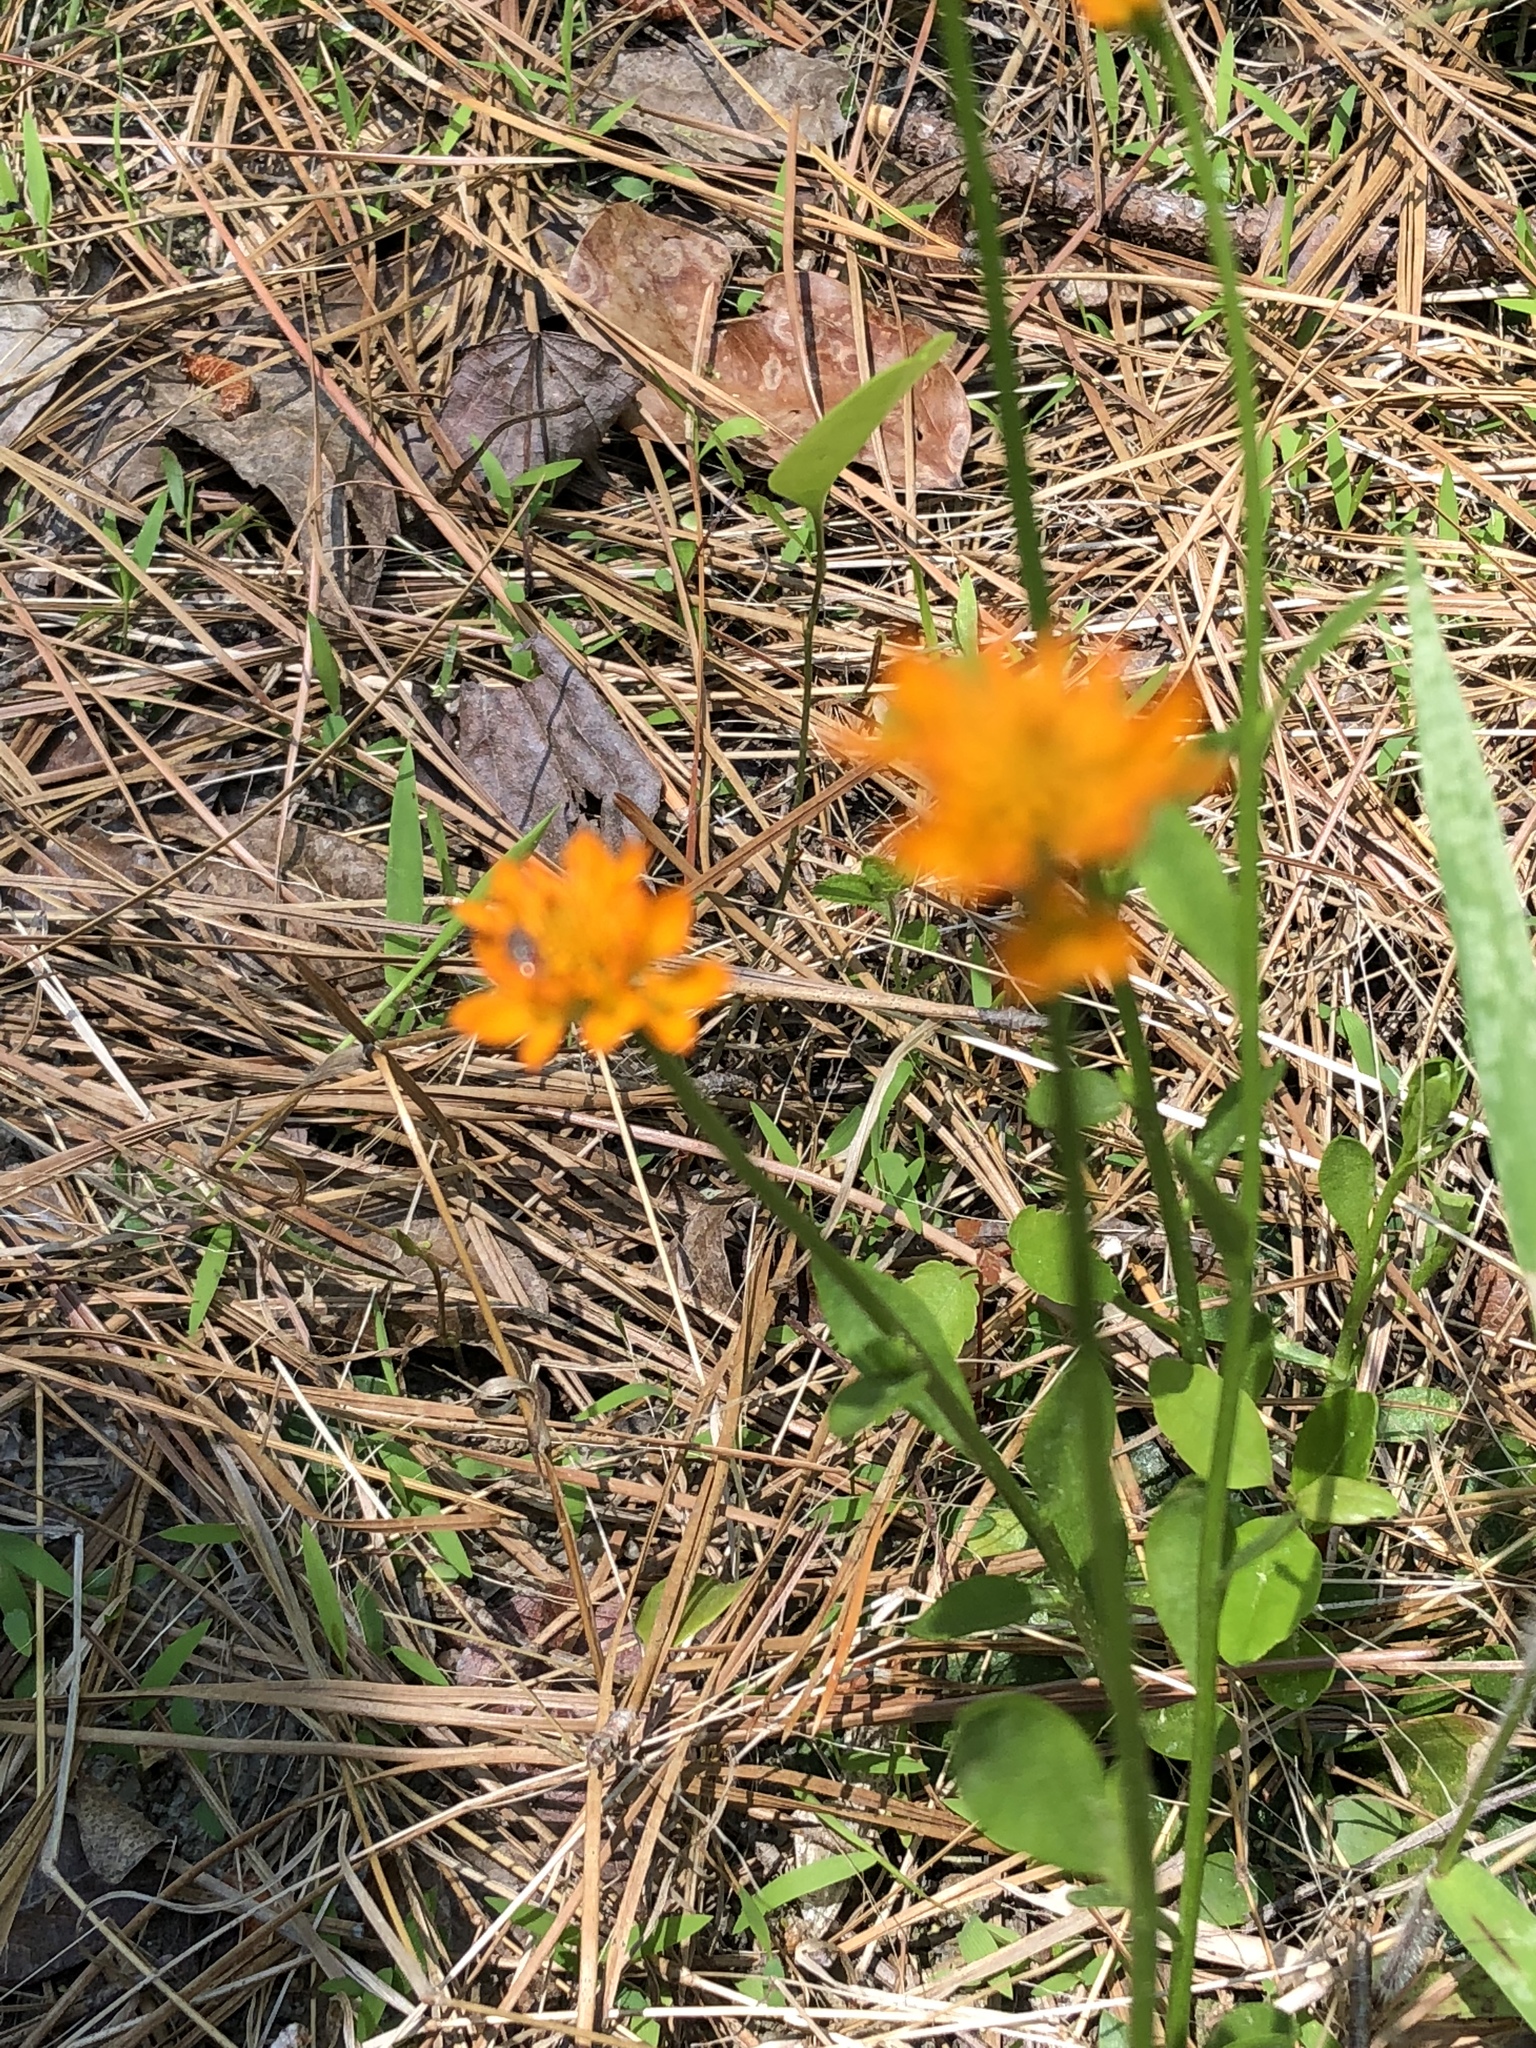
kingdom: Plantae
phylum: Tracheophyta
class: Magnoliopsida
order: Fabales
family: Polygalaceae
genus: Polygala
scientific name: Polygala lutea
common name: Orange milkwort
